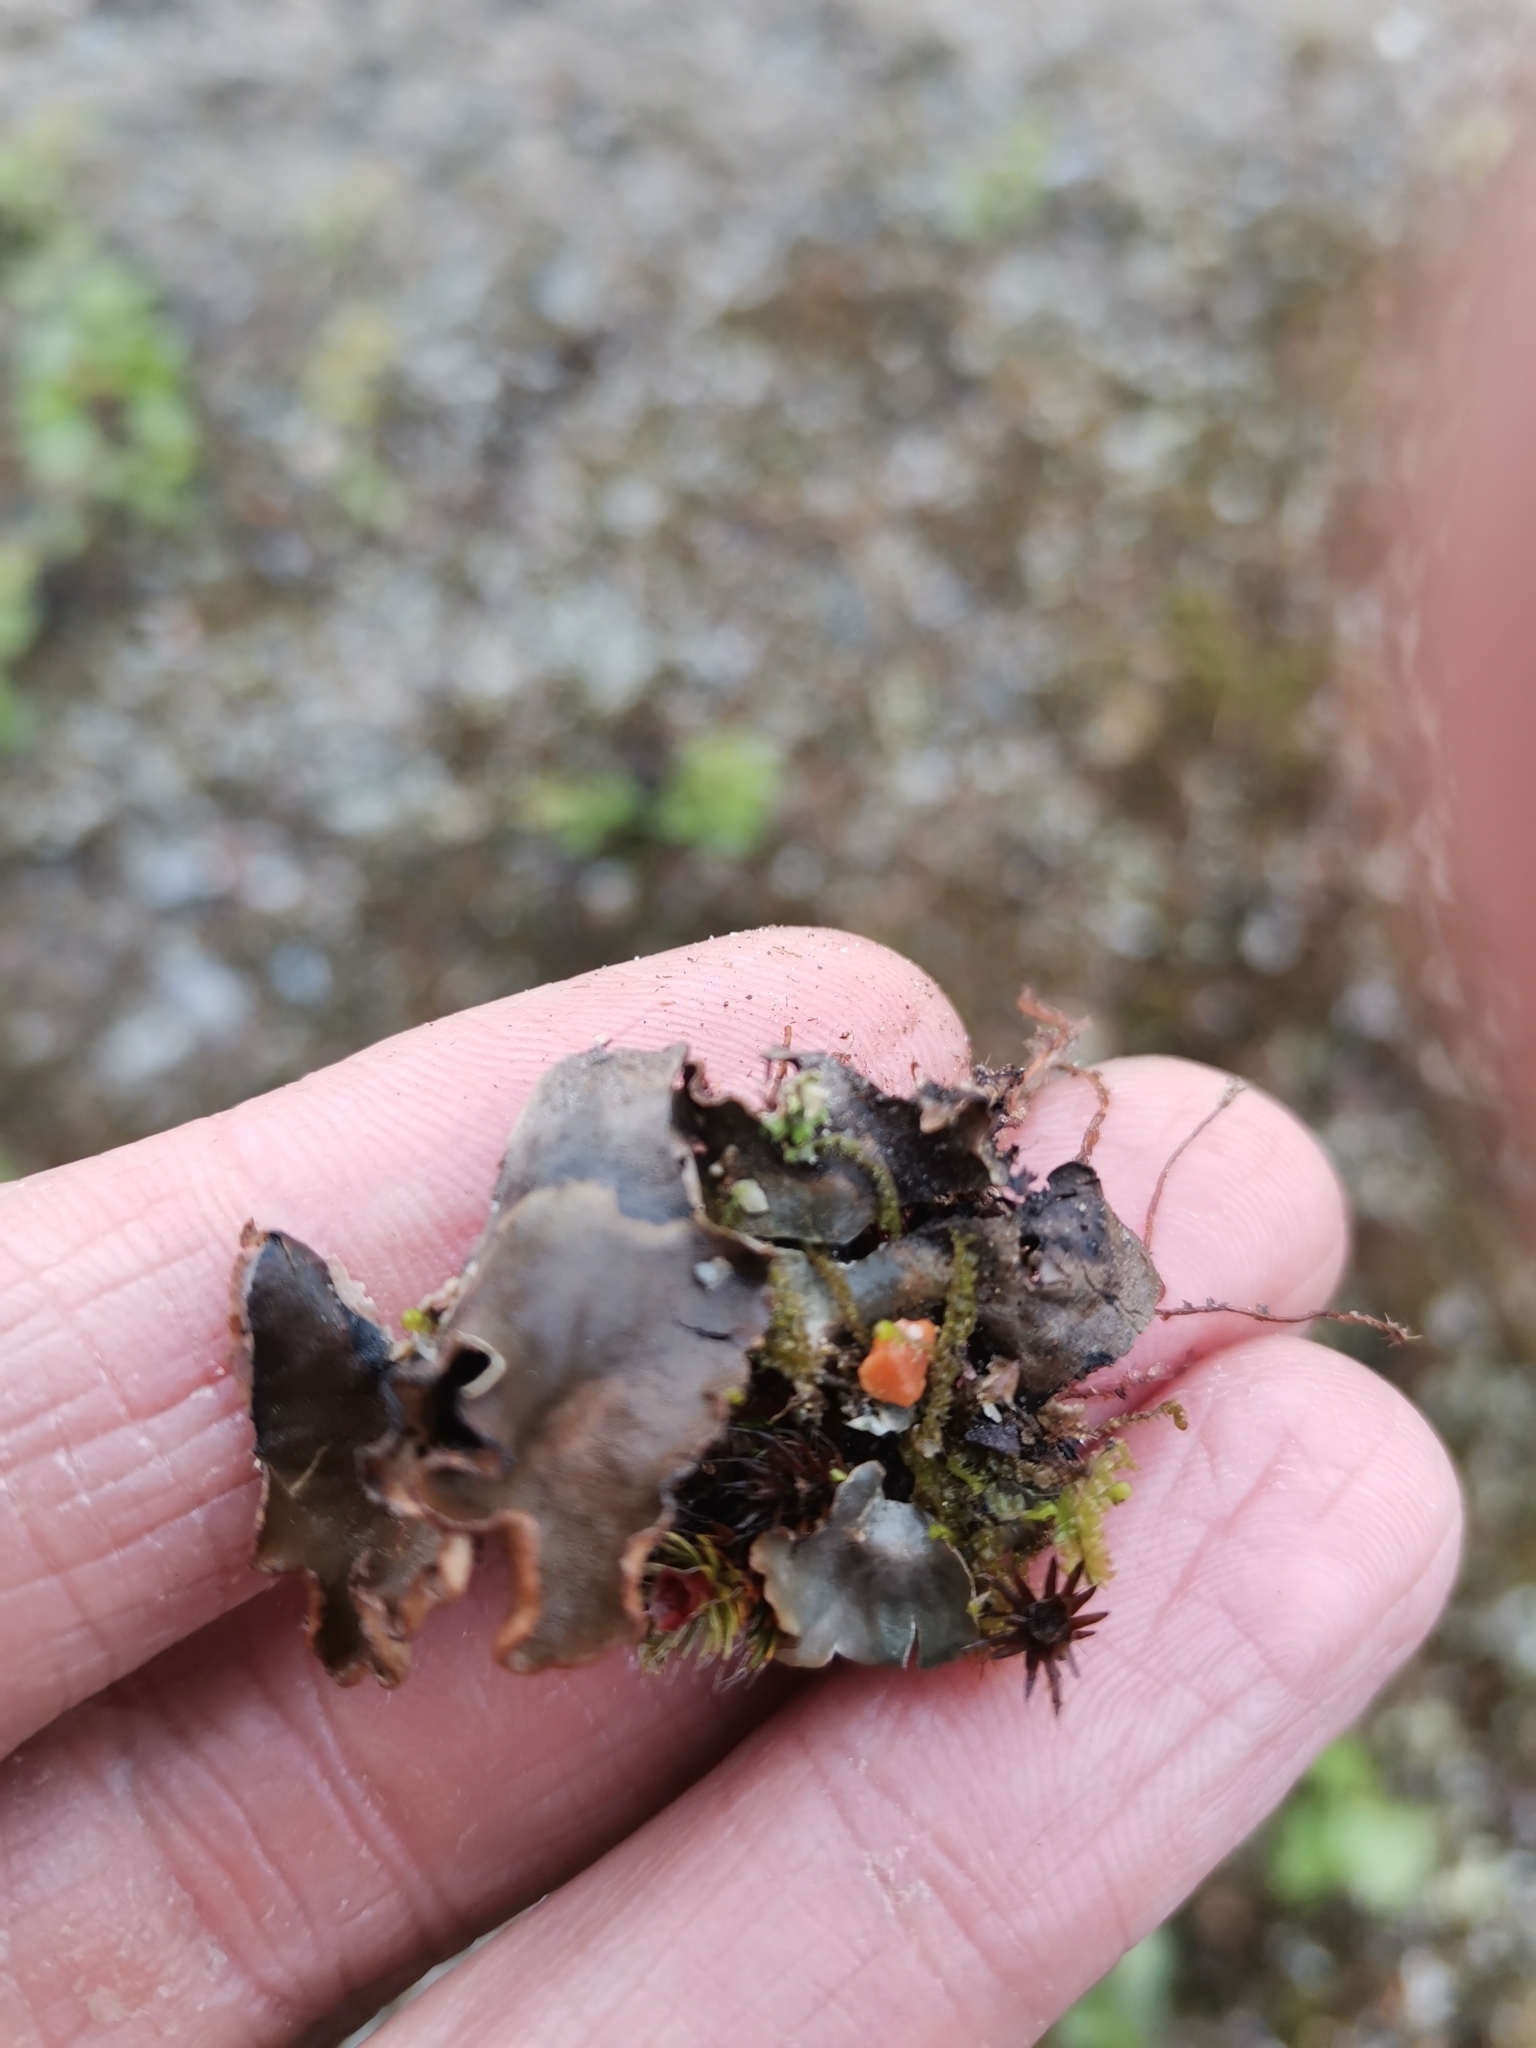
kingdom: Fungi
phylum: Ascomycota
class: Lecanoromycetes
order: Peltigerales
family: Peltigeraceae
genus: Peltigera
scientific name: Peltigera malacea
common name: Matt felt lichen
